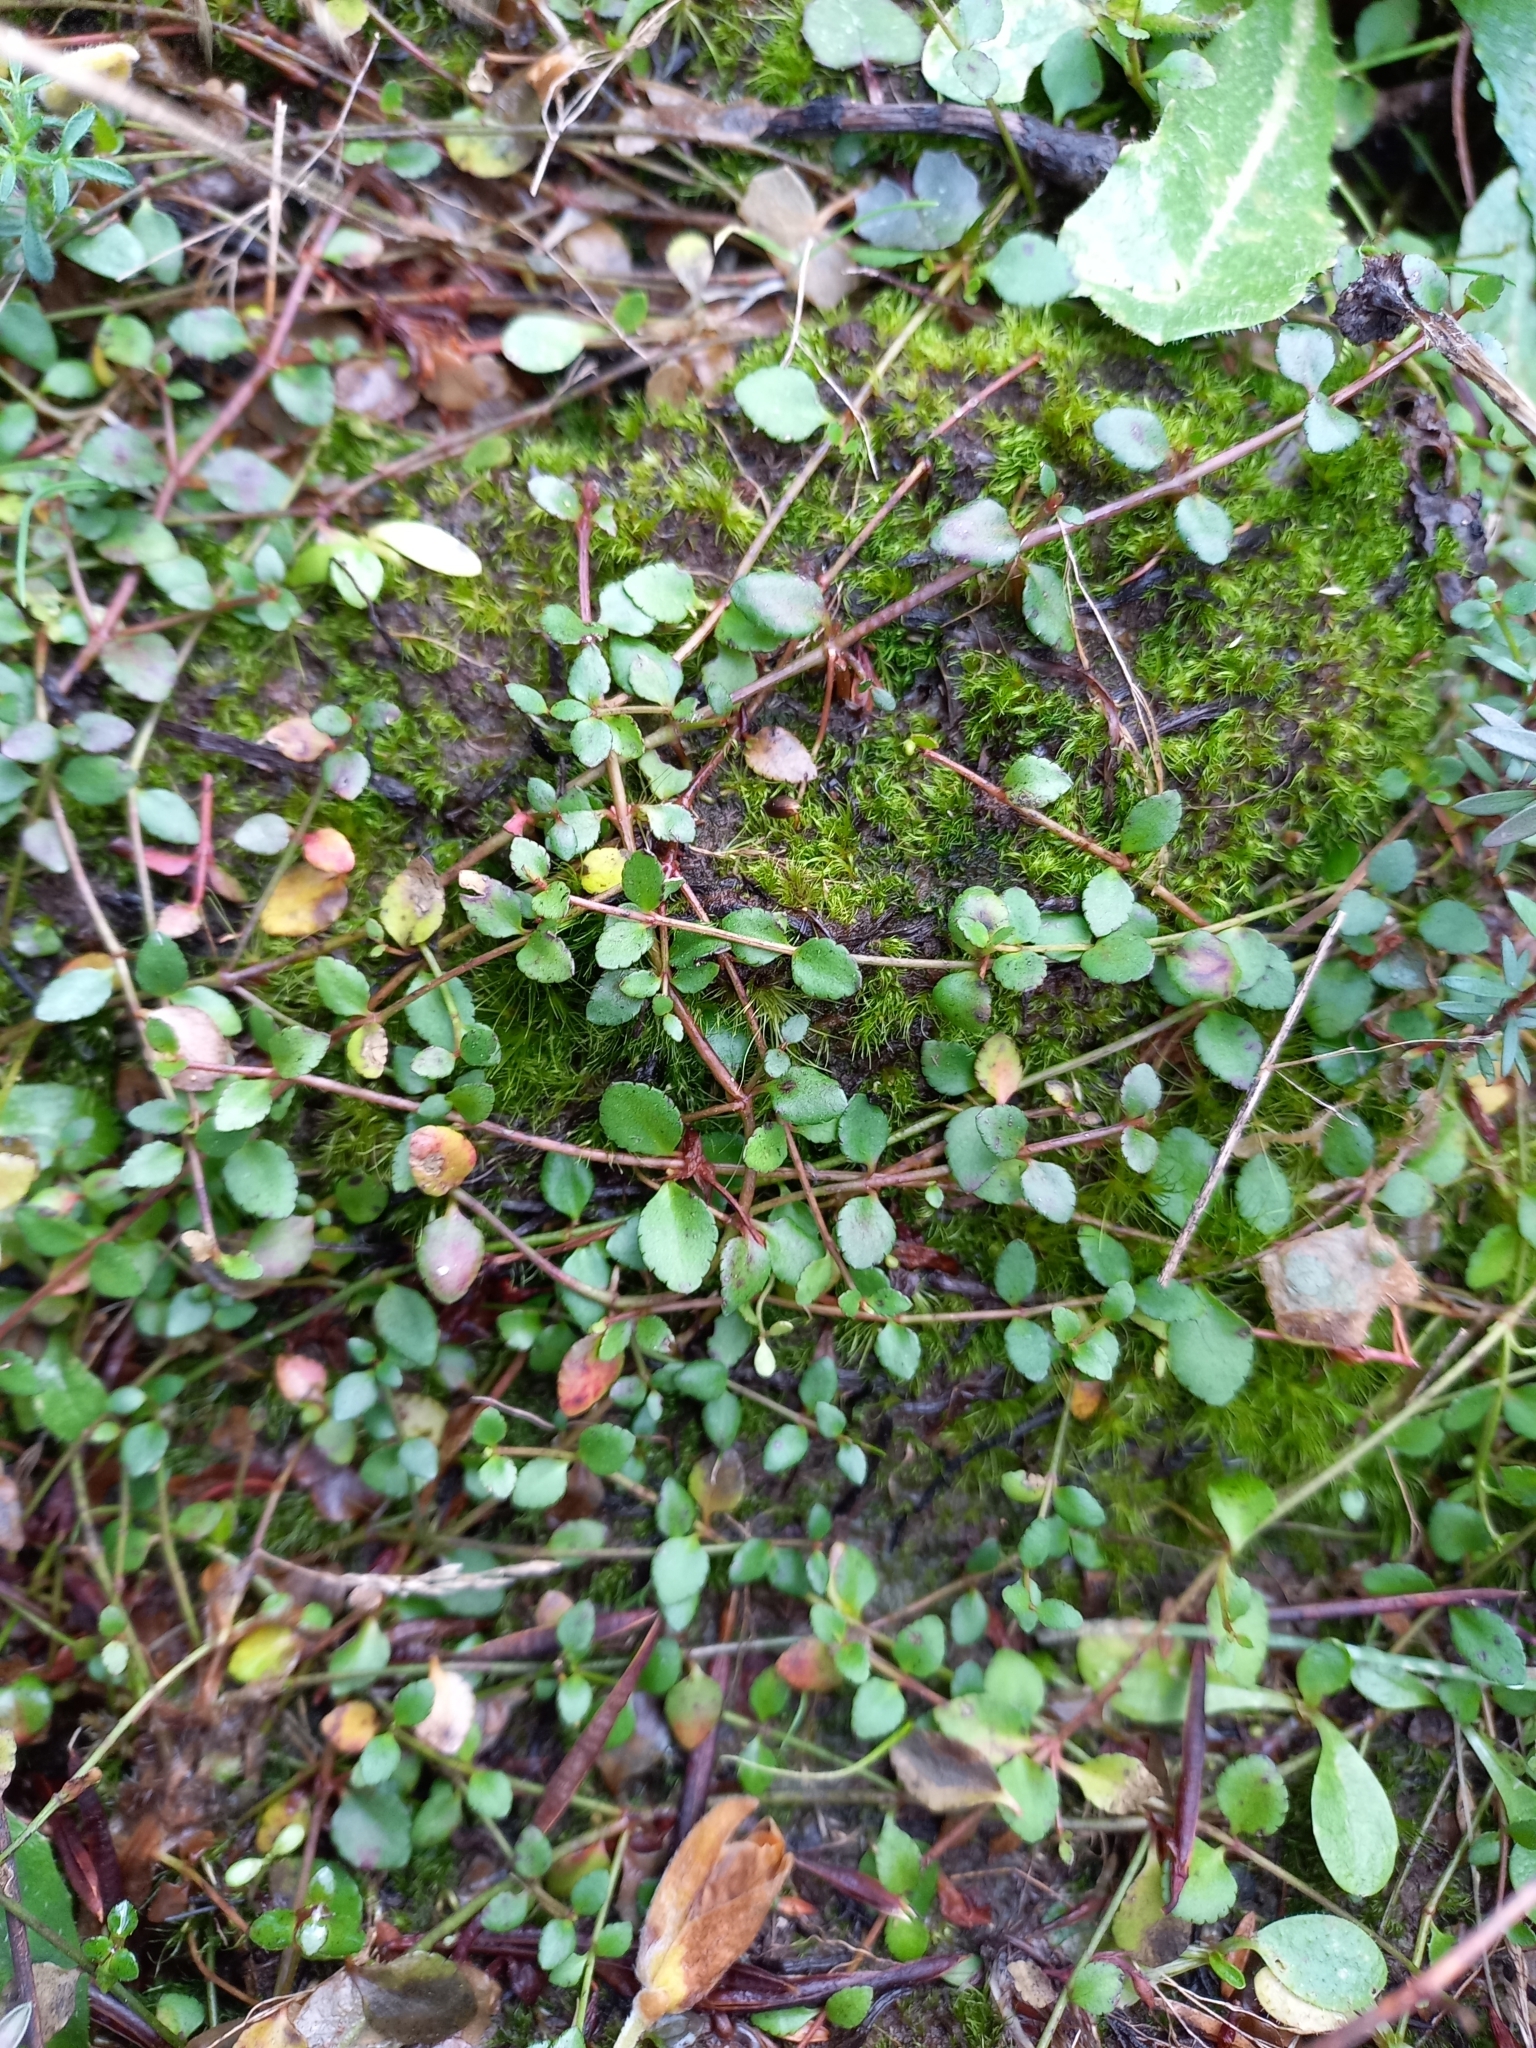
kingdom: Plantae
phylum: Tracheophyta
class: Magnoliopsida
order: Saxifragales
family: Haloragaceae
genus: Gonocarpus
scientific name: Gonocarpus micranthus
